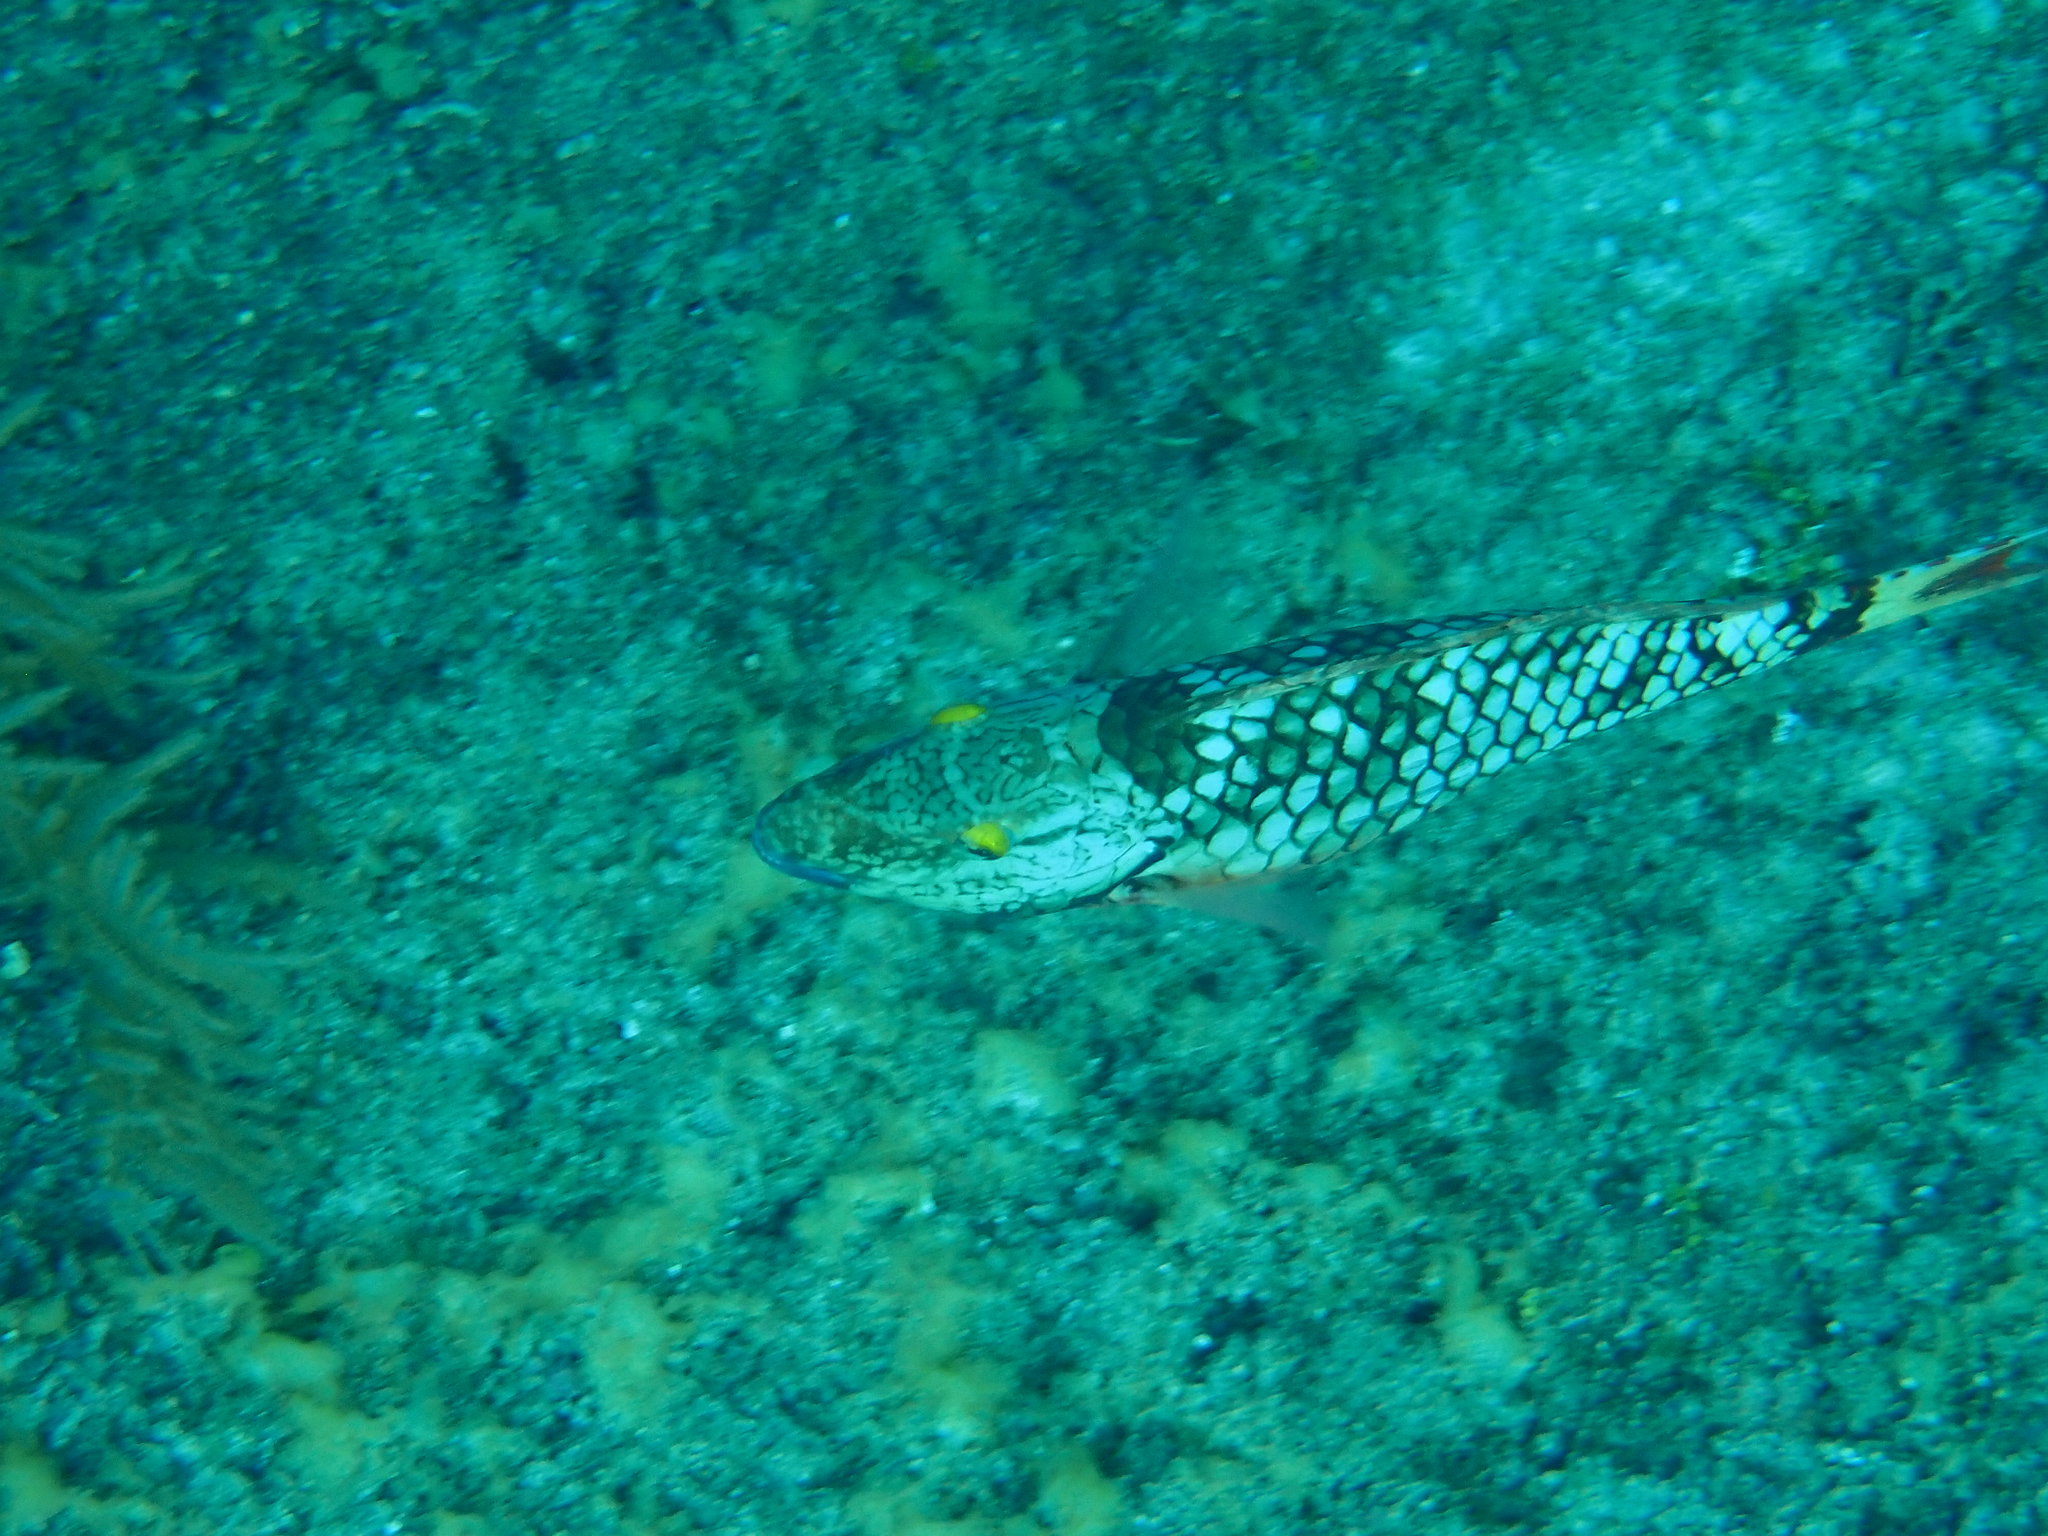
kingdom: Animalia
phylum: Chordata
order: Perciformes
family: Scaridae
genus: Sparisoma
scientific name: Sparisoma viride
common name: Stoplight parrotfish
